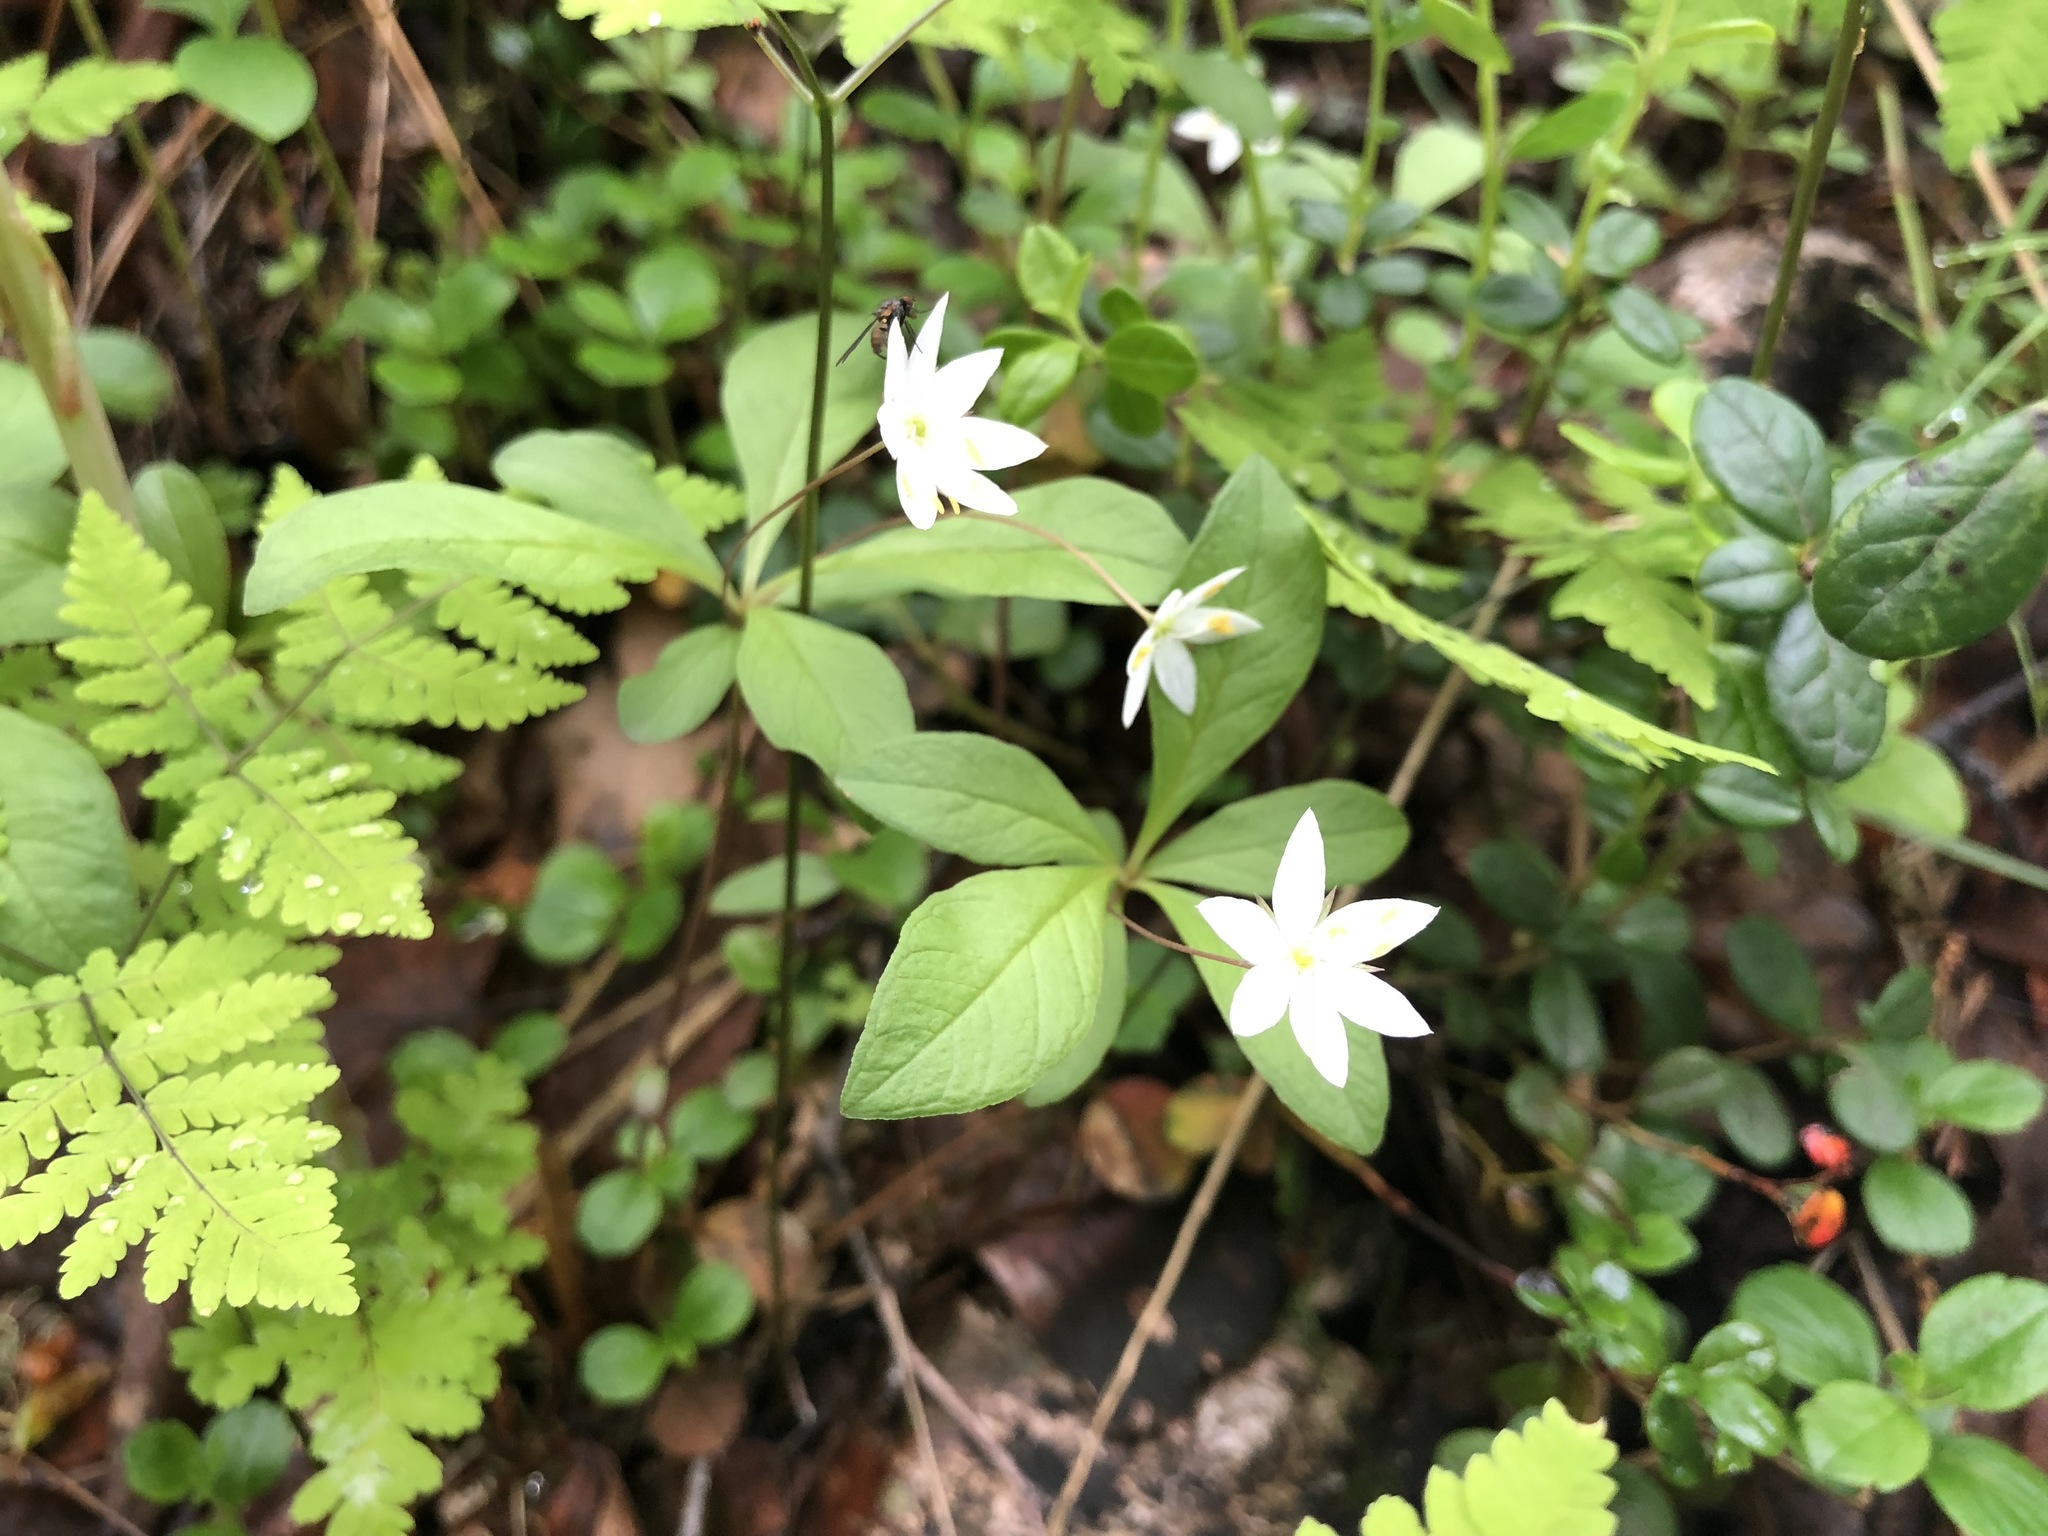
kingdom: Plantae
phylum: Tracheophyta
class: Magnoliopsida
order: Ericales
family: Primulaceae
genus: Lysimachia
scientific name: Lysimachia europaea
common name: Arctic starflower
